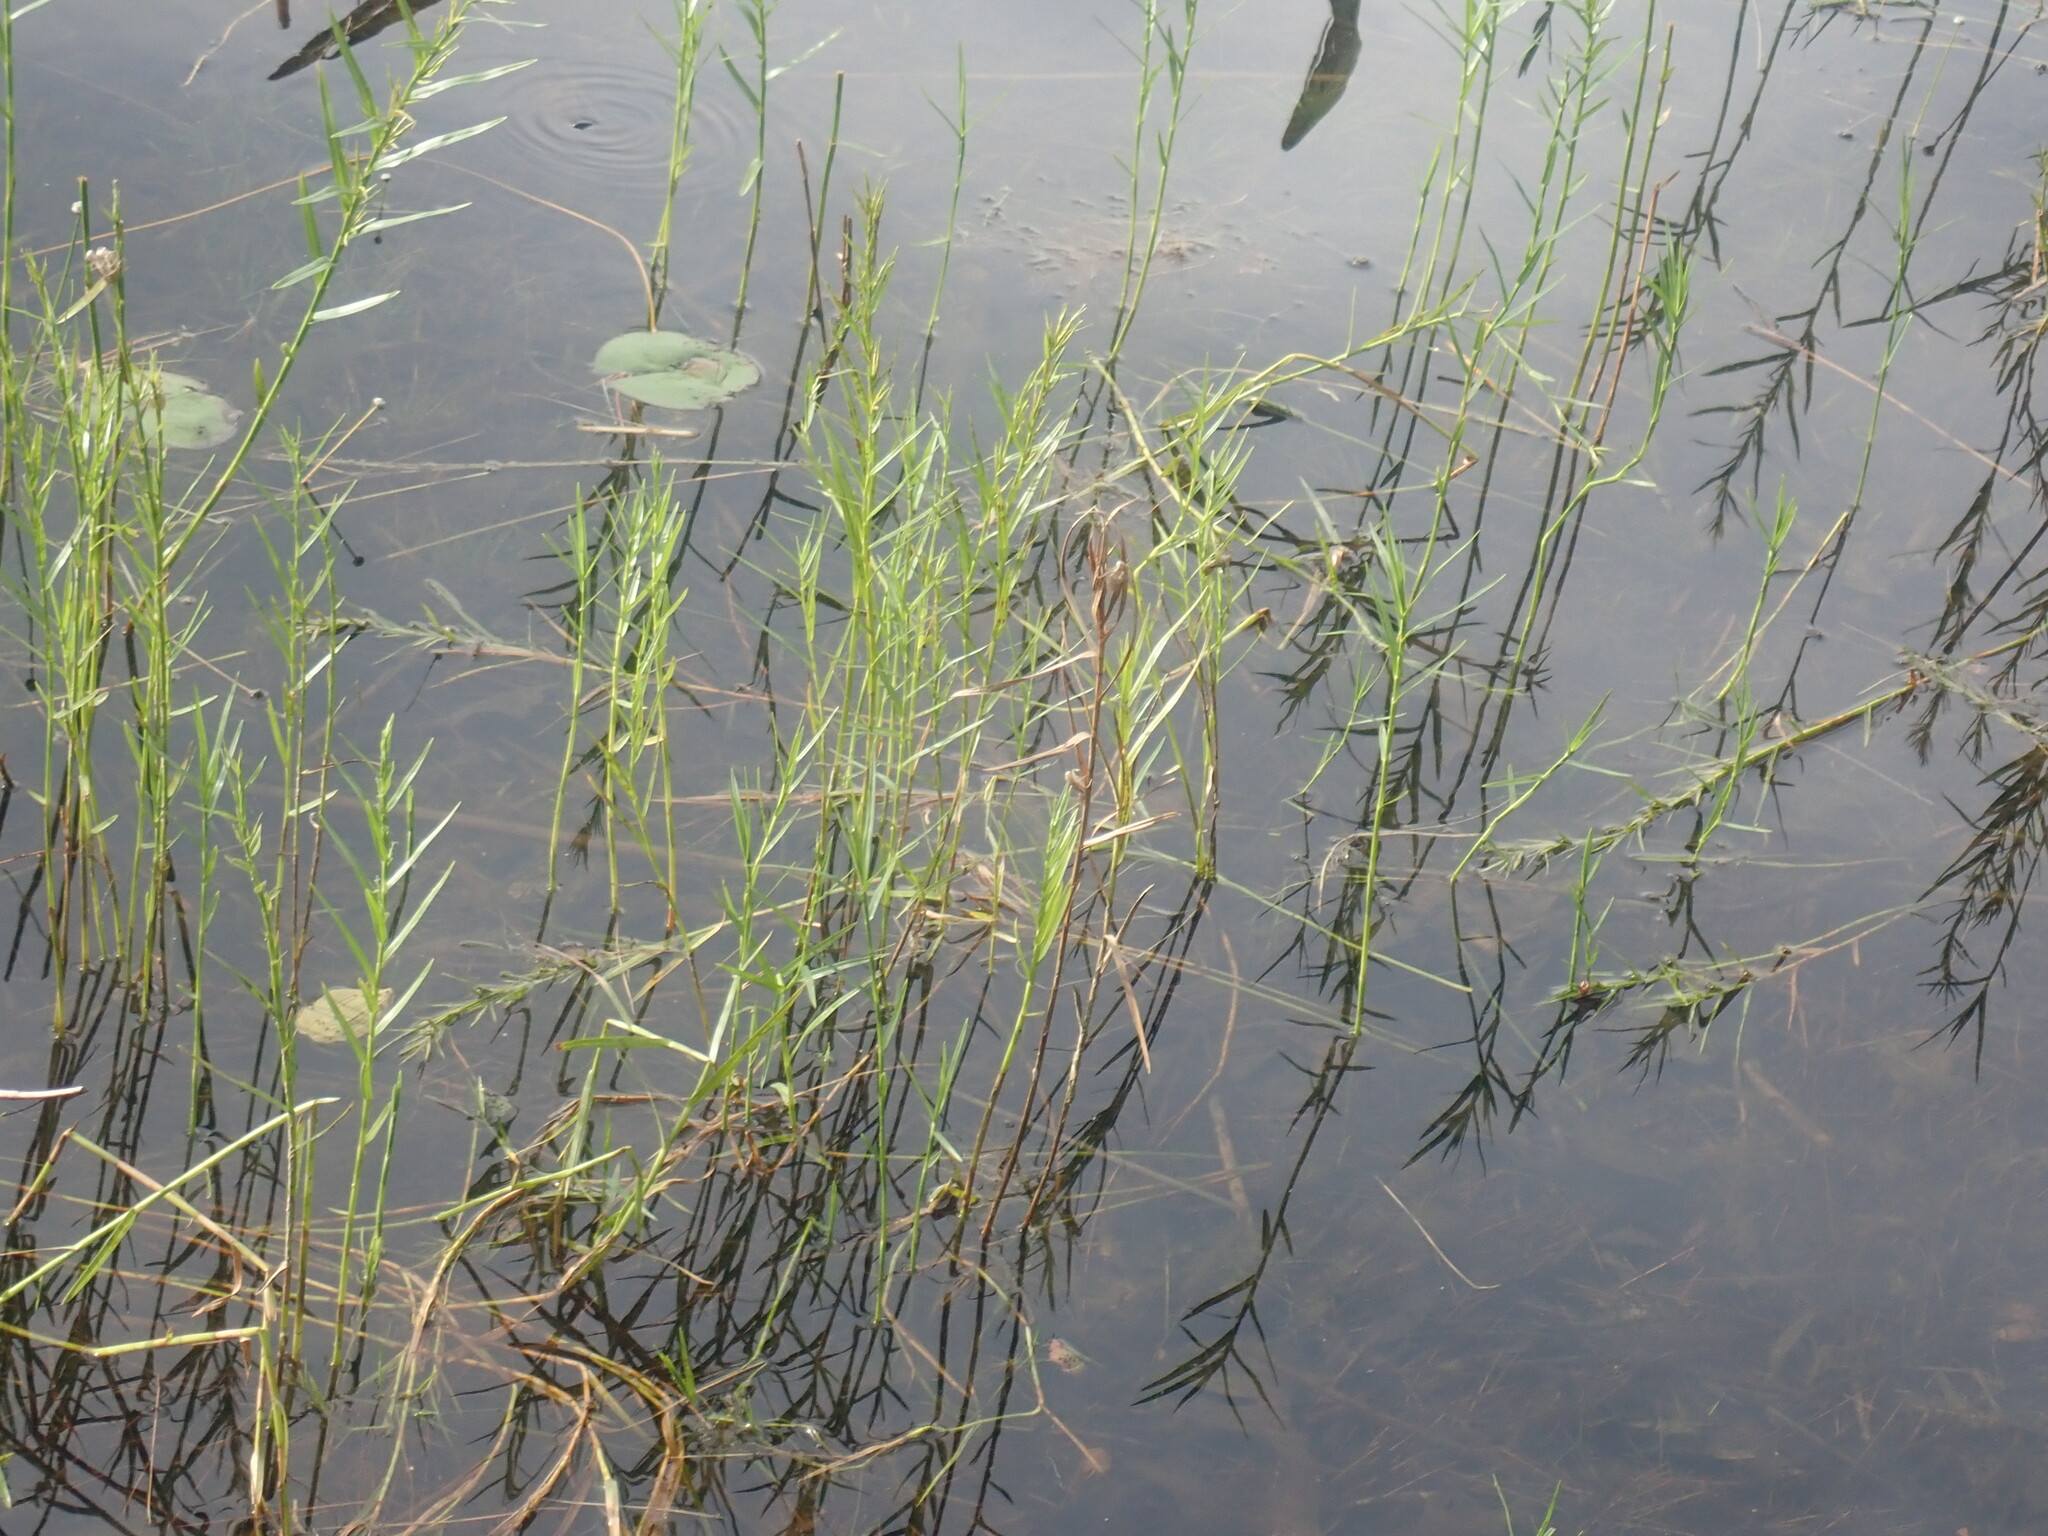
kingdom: Plantae
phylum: Tracheophyta
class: Liliopsida
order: Poales
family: Cyperaceae
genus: Dulichium
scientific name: Dulichium arundinaceum
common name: Three-way sedge
